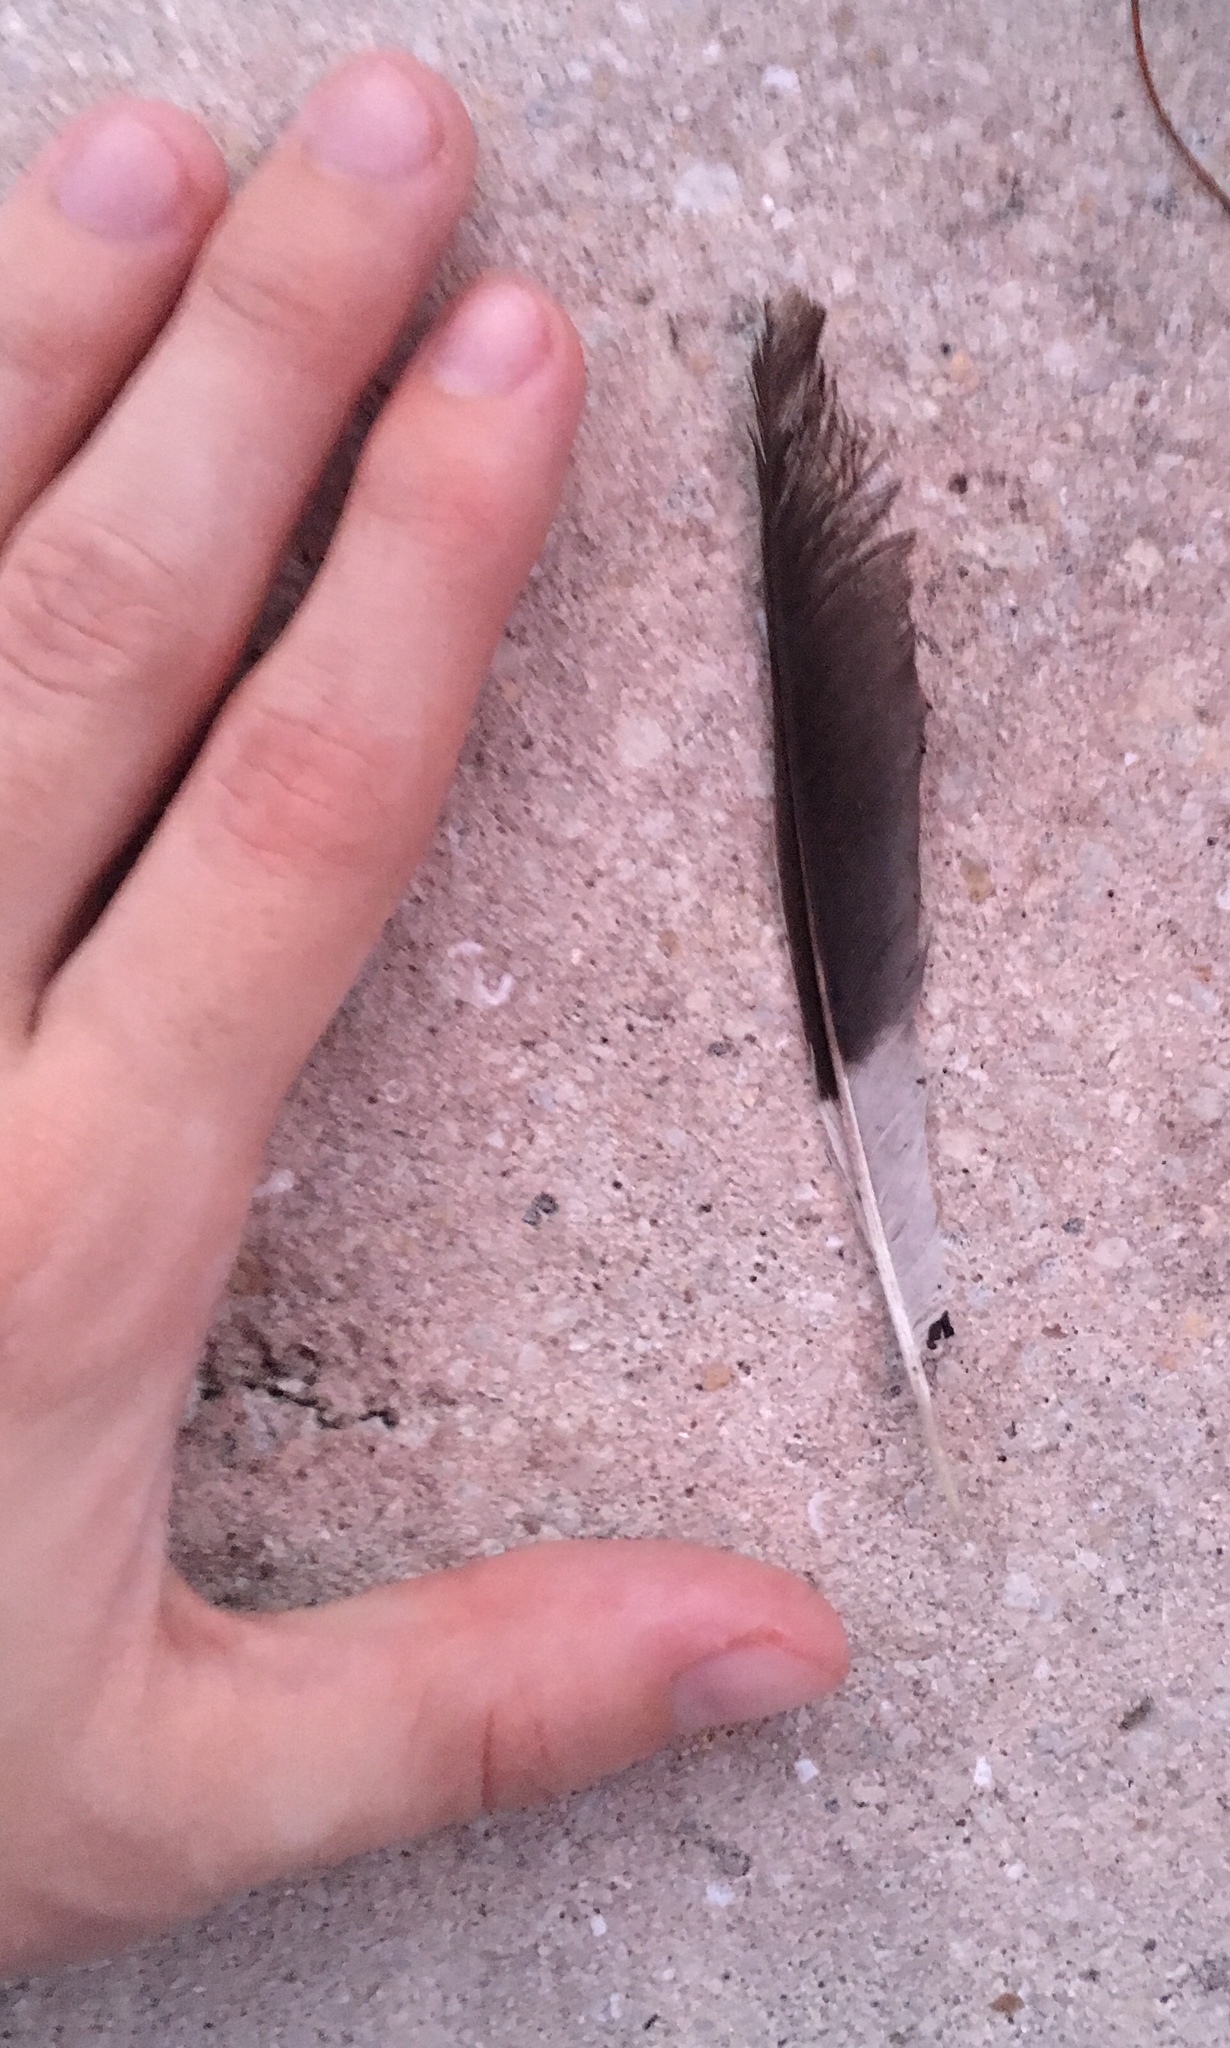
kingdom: Animalia
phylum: Chordata
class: Aves
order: Passeriformes
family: Mimidae
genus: Mimus
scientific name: Mimus polyglottos
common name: Northern mockingbird
